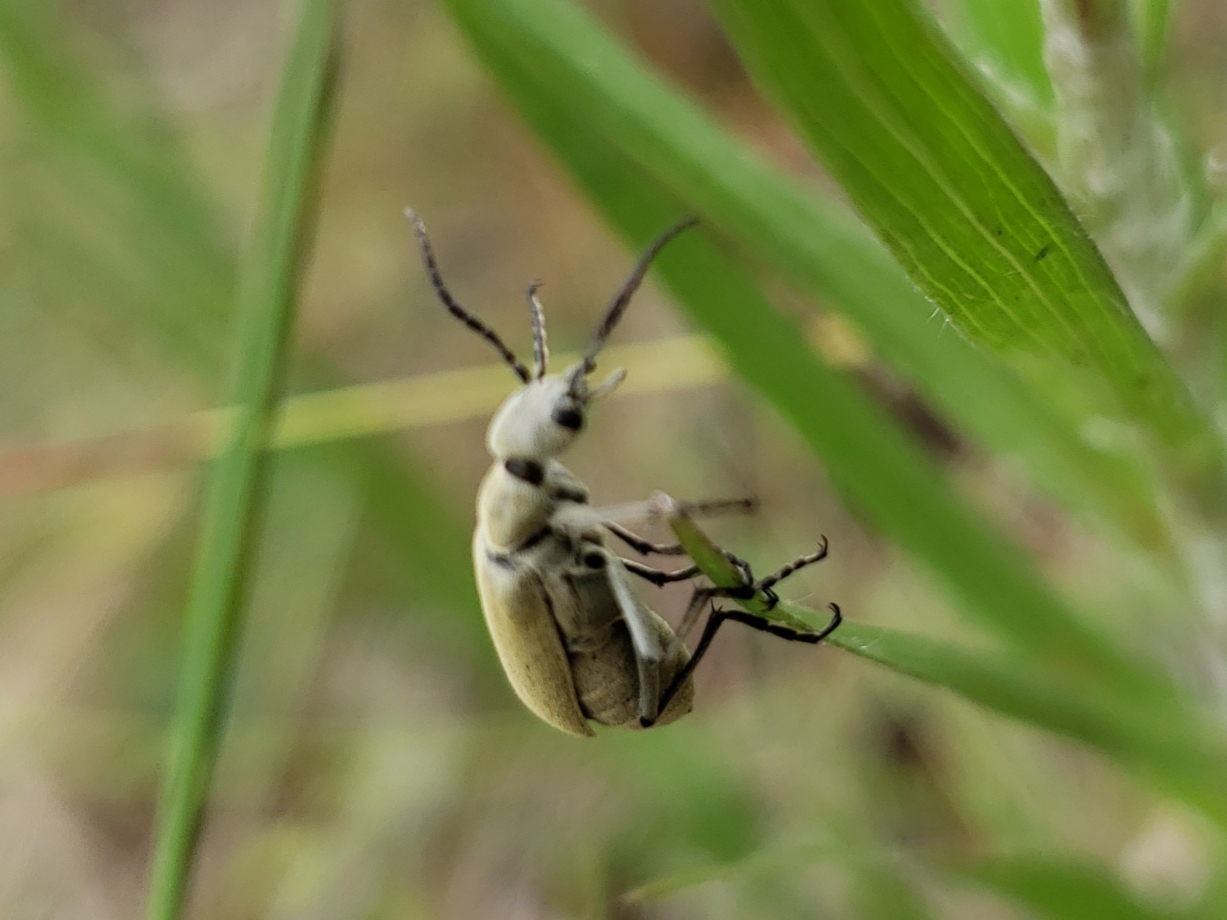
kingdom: Animalia
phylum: Arthropoda
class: Insecta
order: Coleoptera
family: Meloidae
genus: Epicauta
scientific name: Epicauta floridensis
